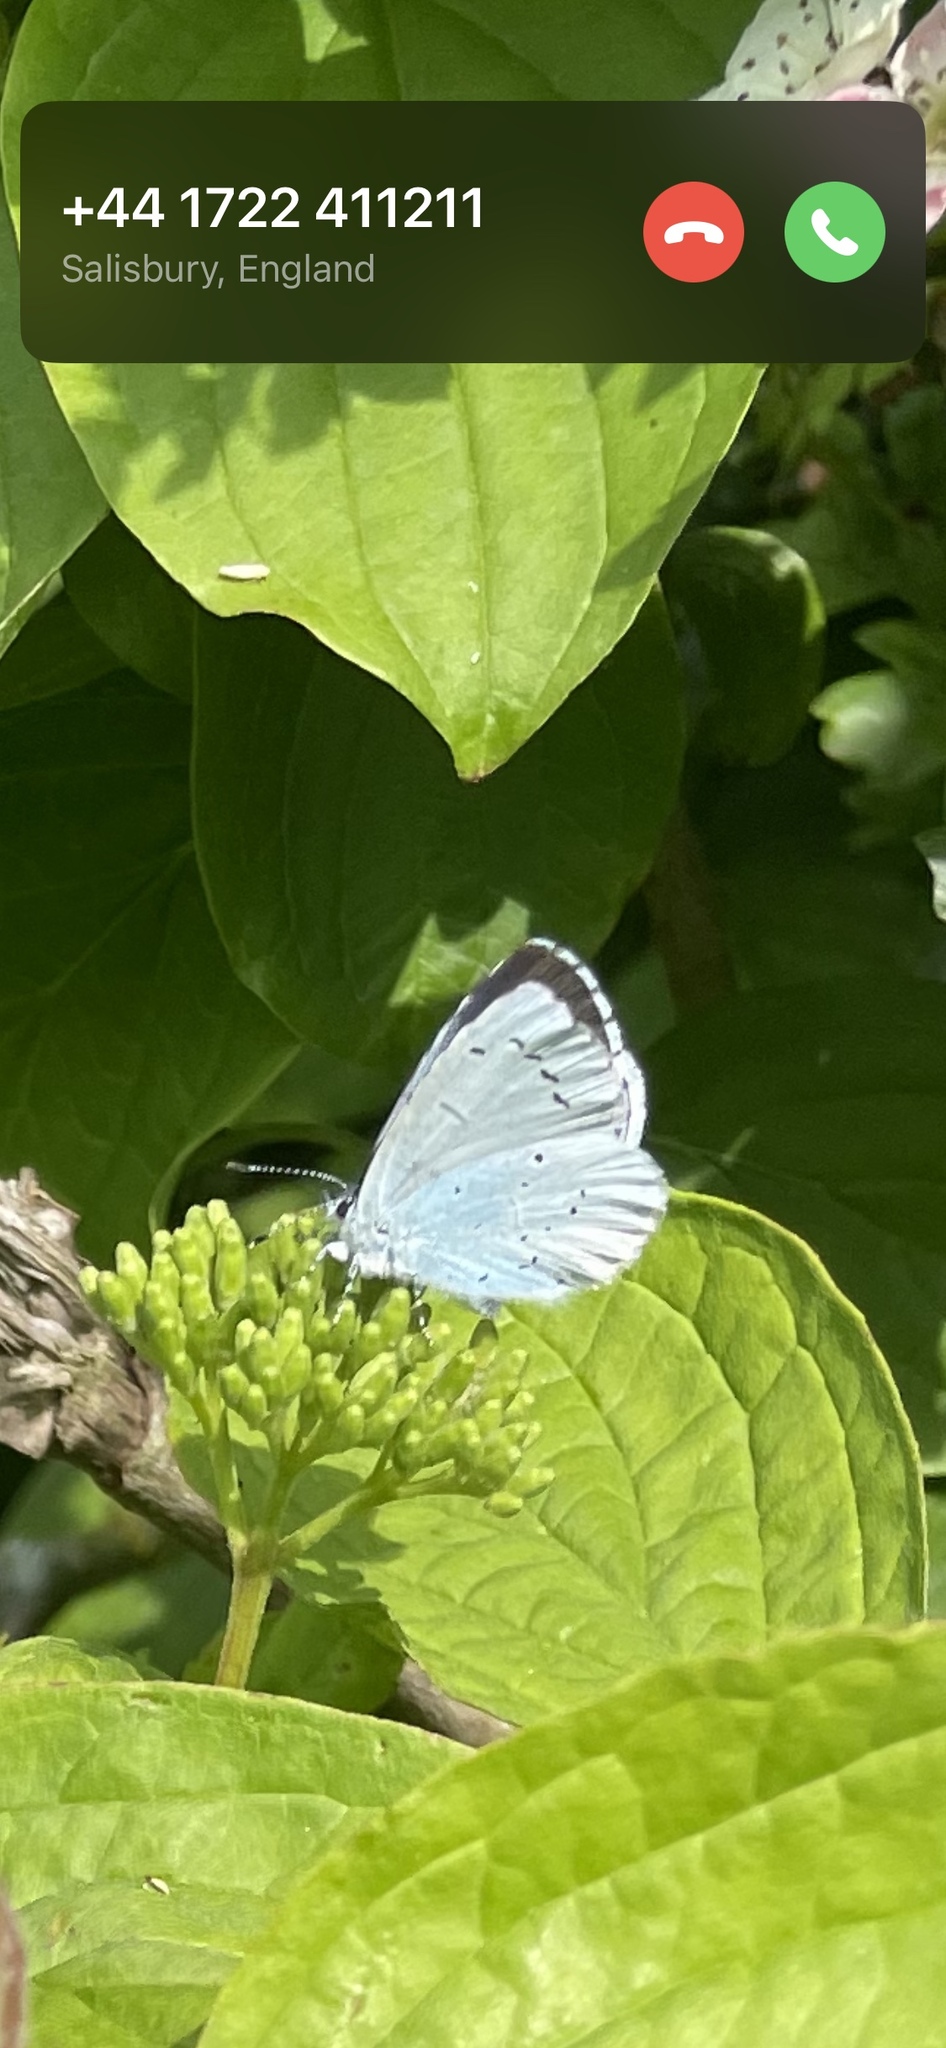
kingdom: Animalia
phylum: Arthropoda
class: Insecta
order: Lepidoptera
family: Lycaenidae
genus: Celastrina
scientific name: Celastrina argiolus
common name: Holly blue
